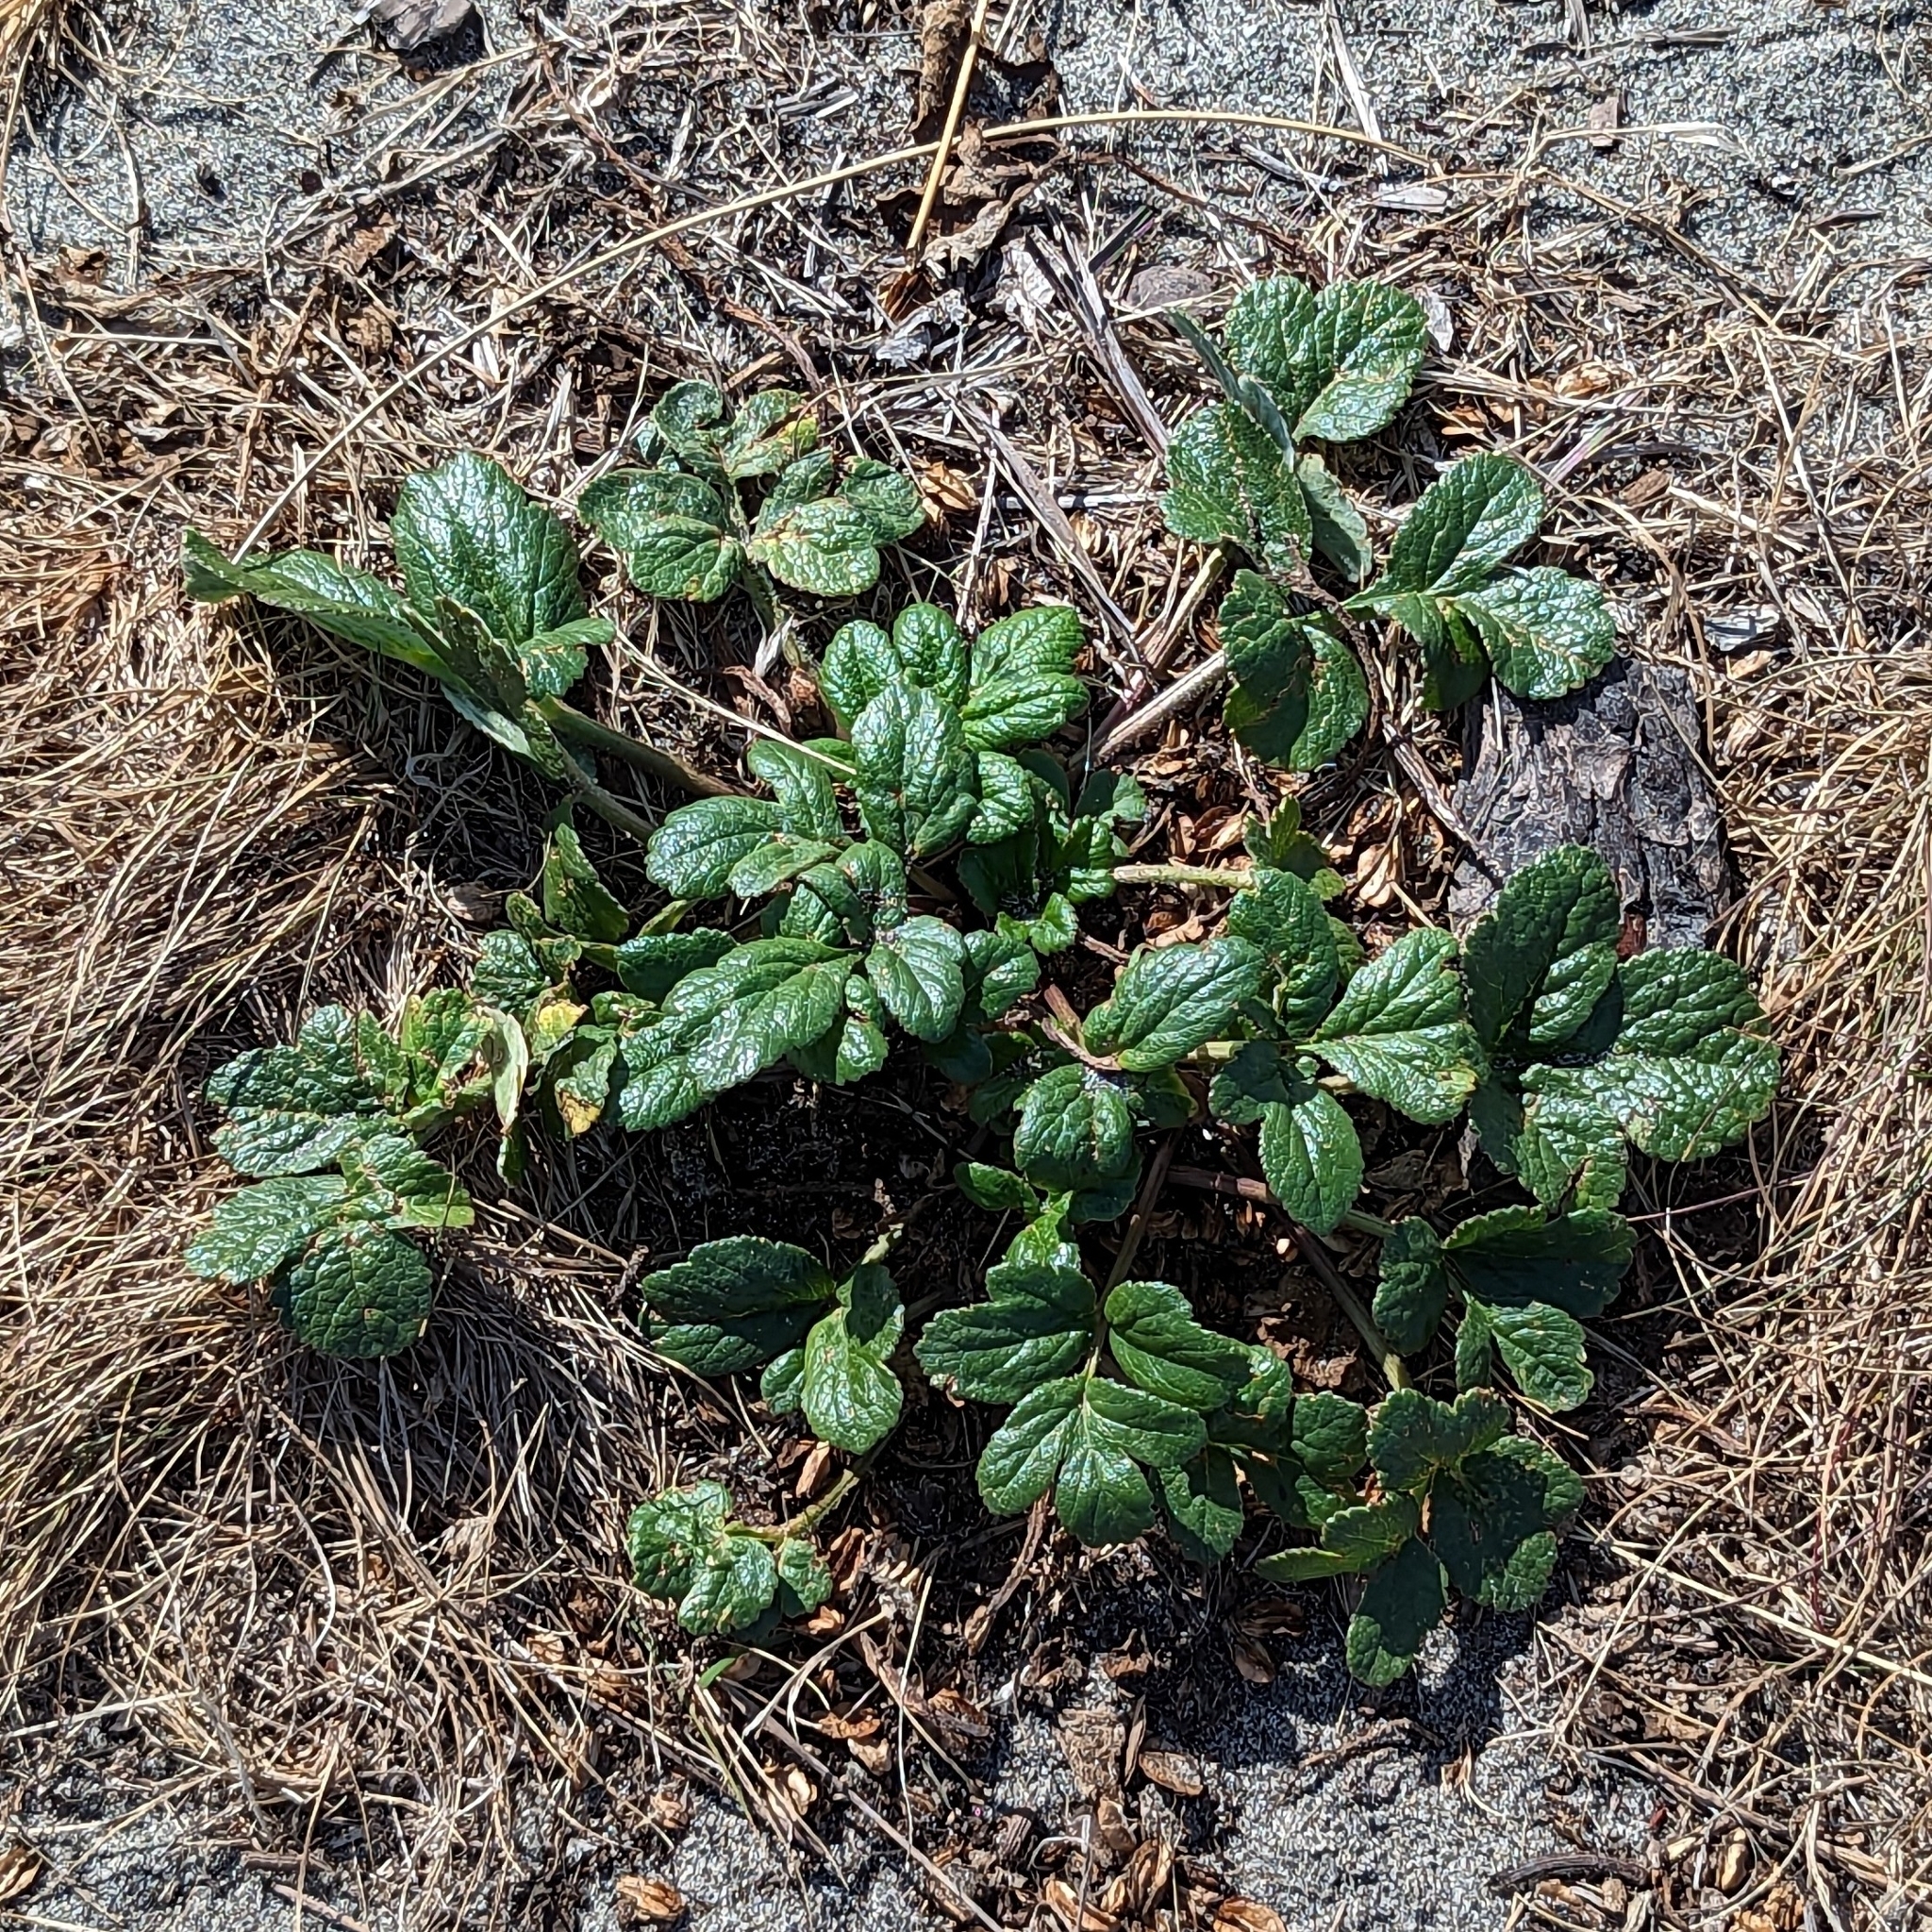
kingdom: Plantae
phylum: Tracheophyta
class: Magnoliopsida
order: Apiales
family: Apiaceae
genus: Angelica
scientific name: Angelica leiocarpa
